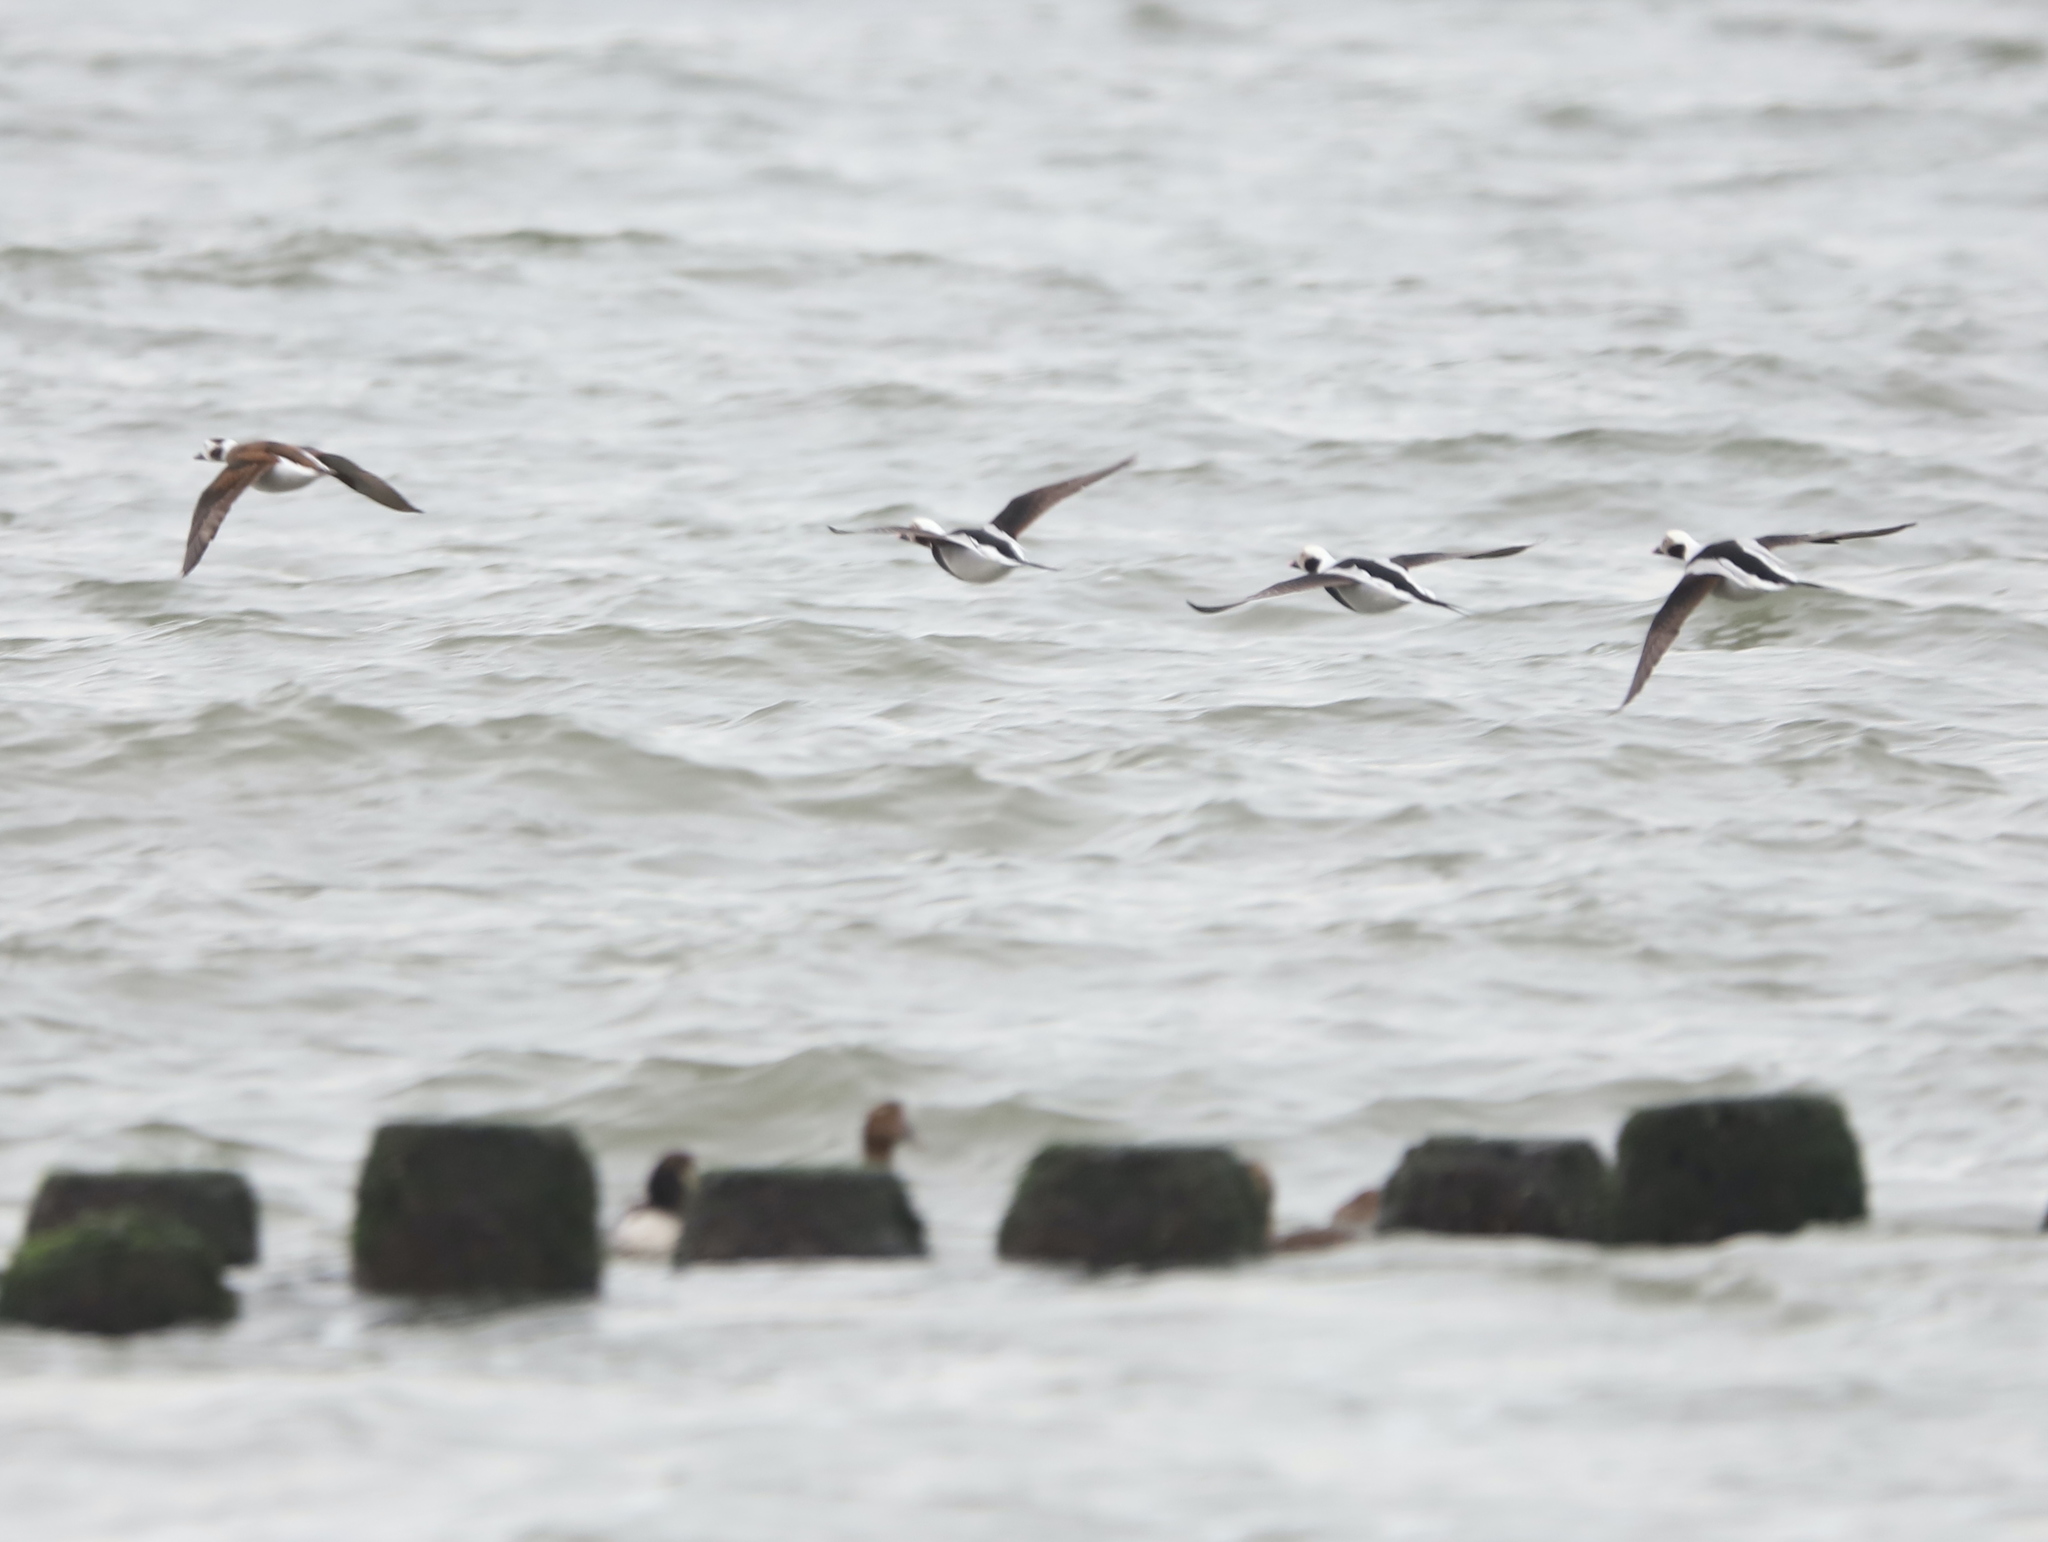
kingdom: Animalia
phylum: Chordata
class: Aves
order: Anseriformes
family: Anatidae
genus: Clangula
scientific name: Clangula hyemalis
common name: Long-tailed duck
